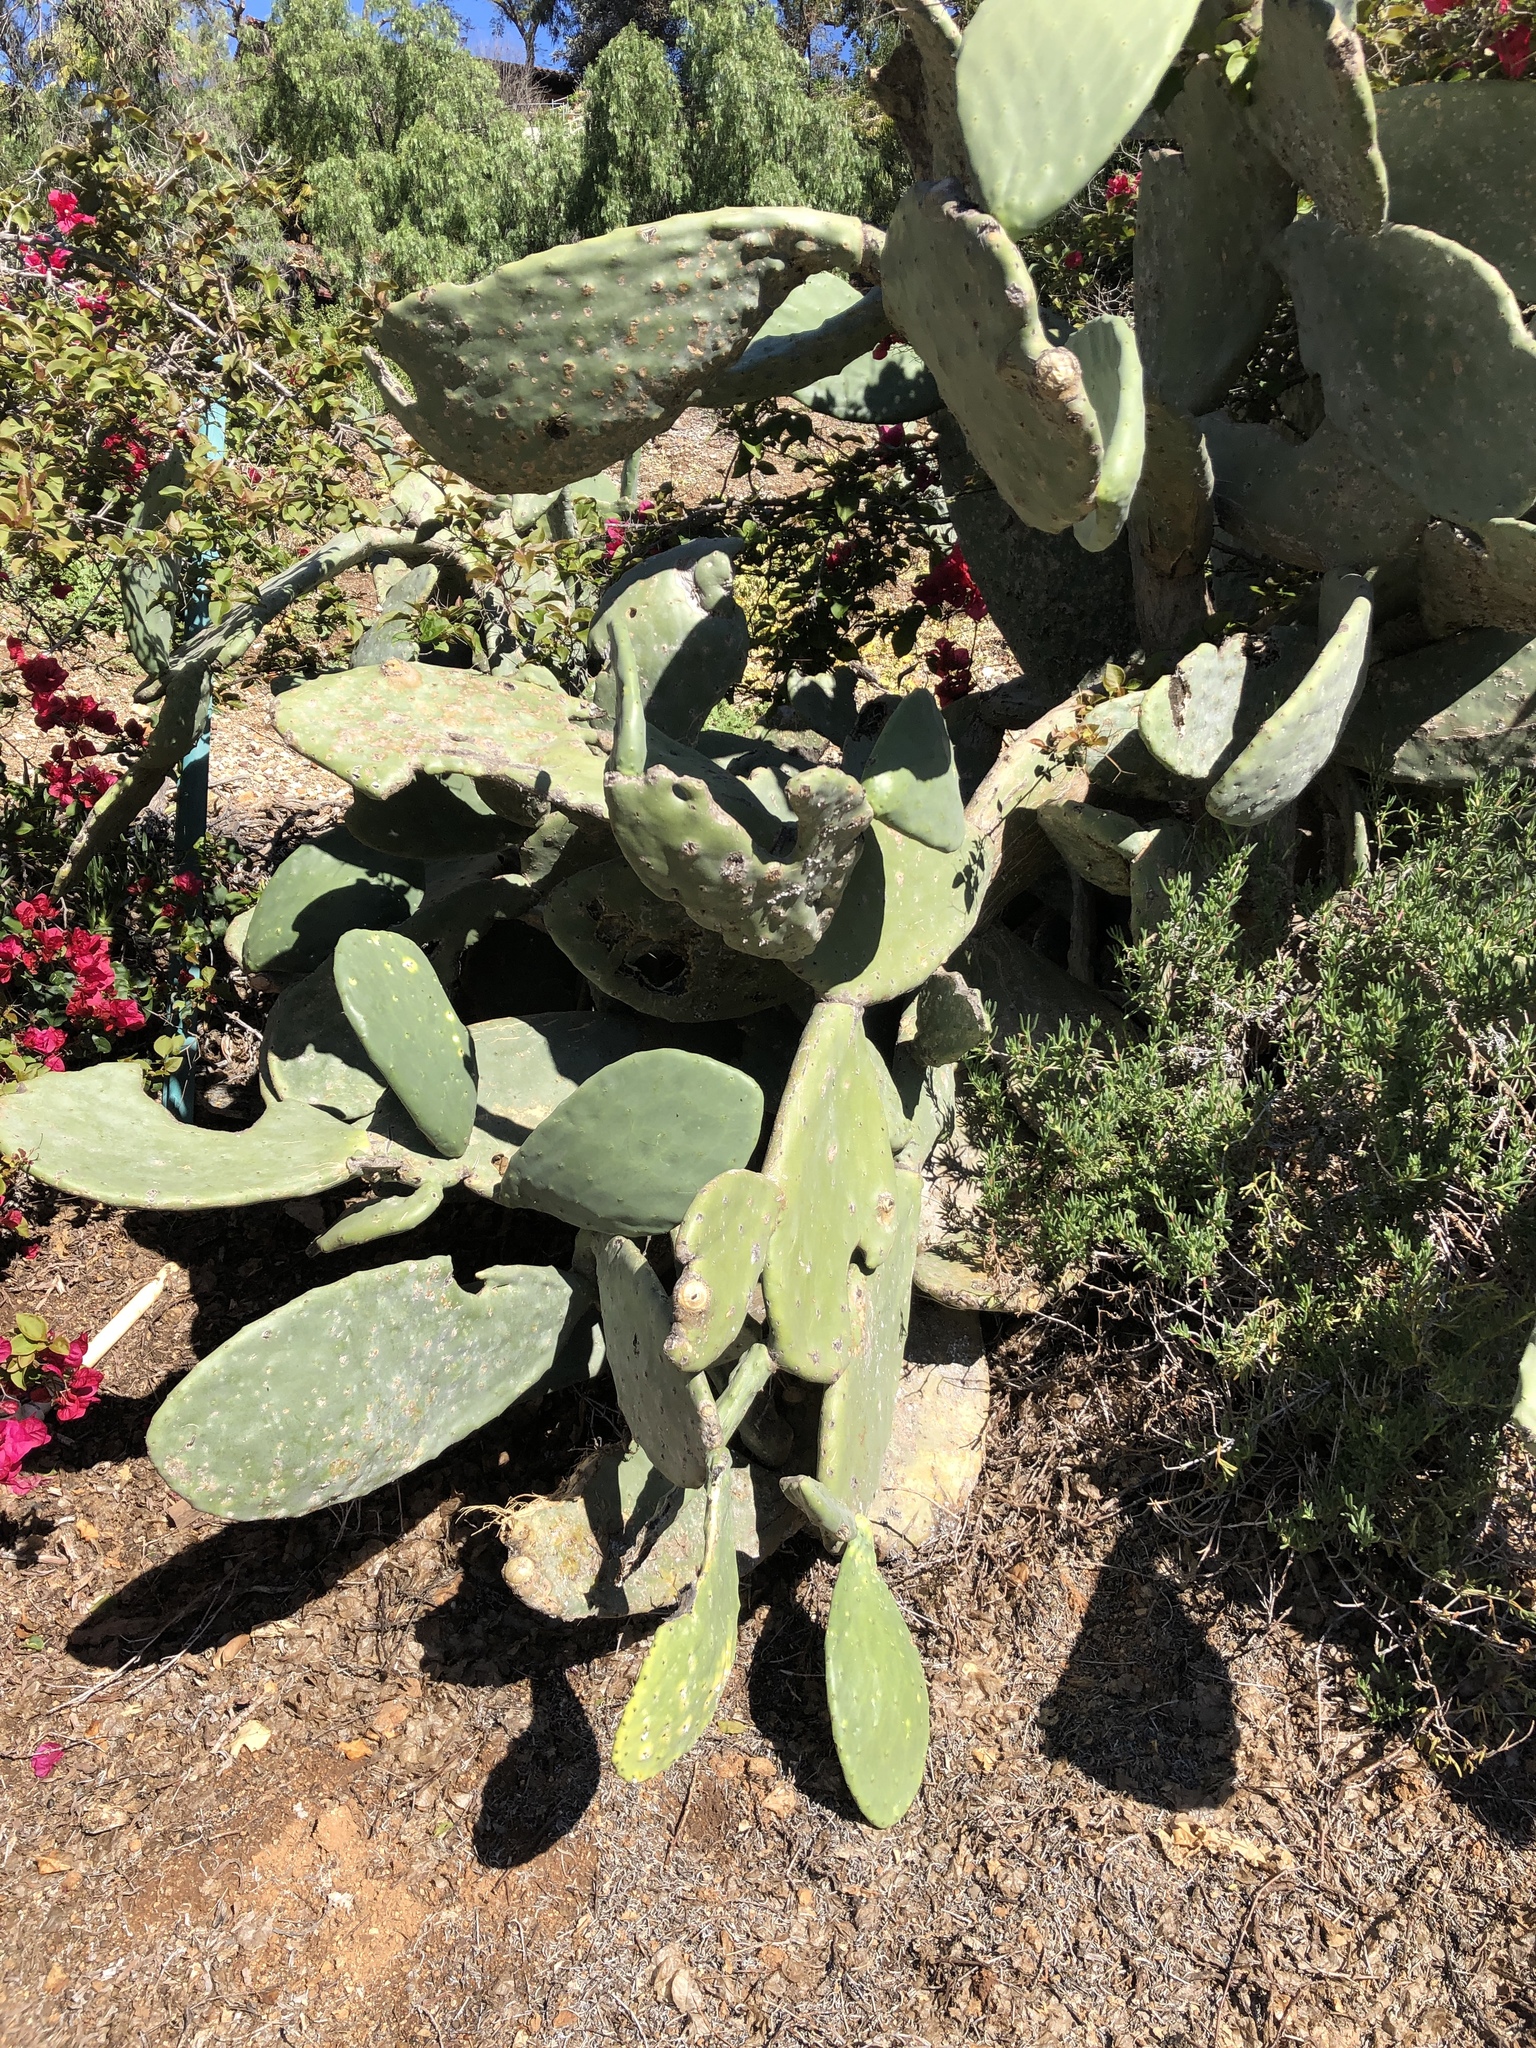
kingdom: Plantae
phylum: Tracheophyta
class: Magnoliopsida
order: Caryophyllales
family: Cactaceae
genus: Opuntia
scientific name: Opuntia ficus-indica
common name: Barbary fig
